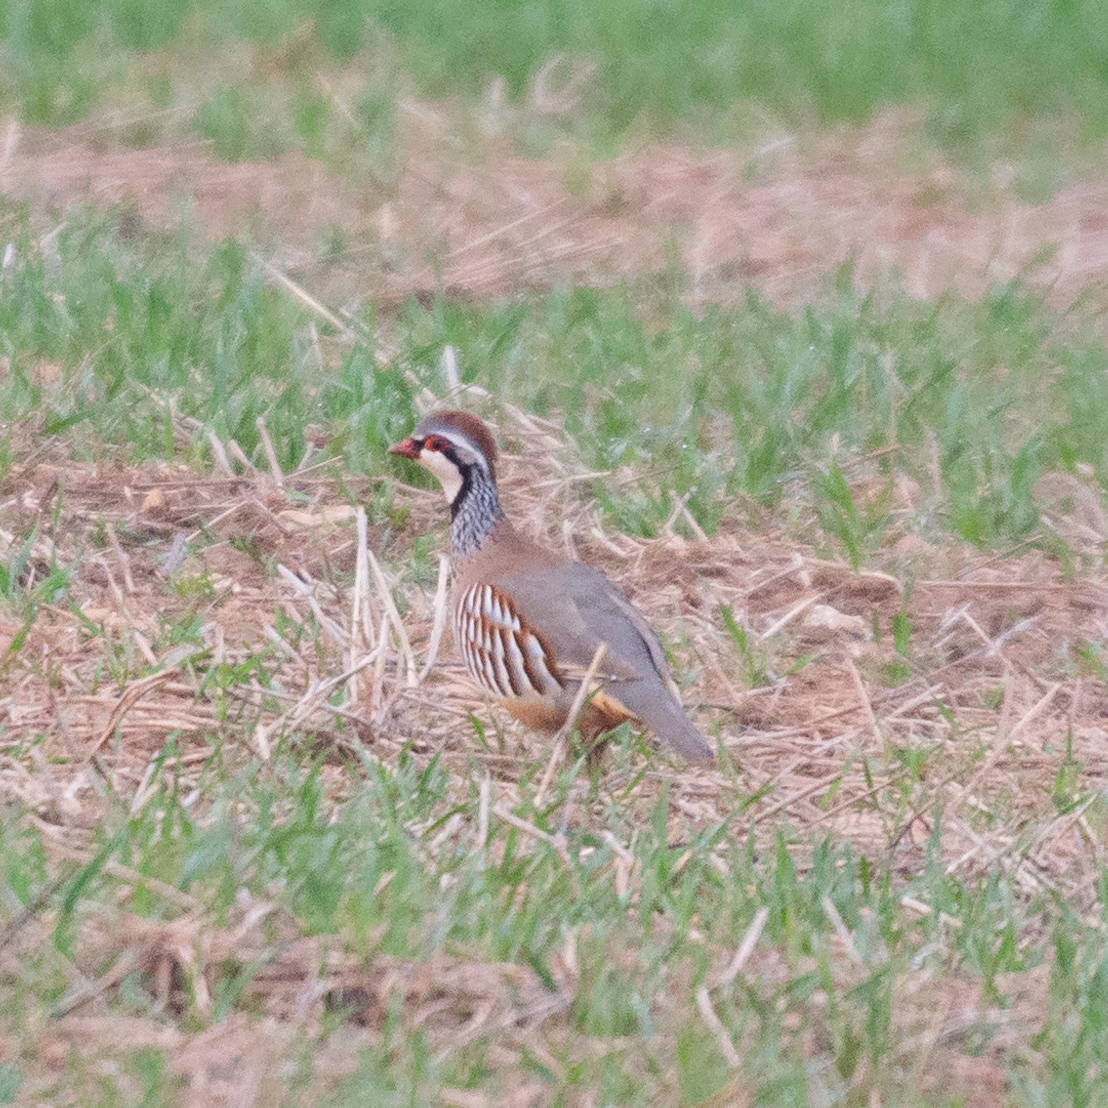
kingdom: Animalia
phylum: Chordata
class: Aves
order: Galliformes
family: Phasianidae
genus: Alectoris
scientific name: Alectoris rufa
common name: Red-legged partridge
